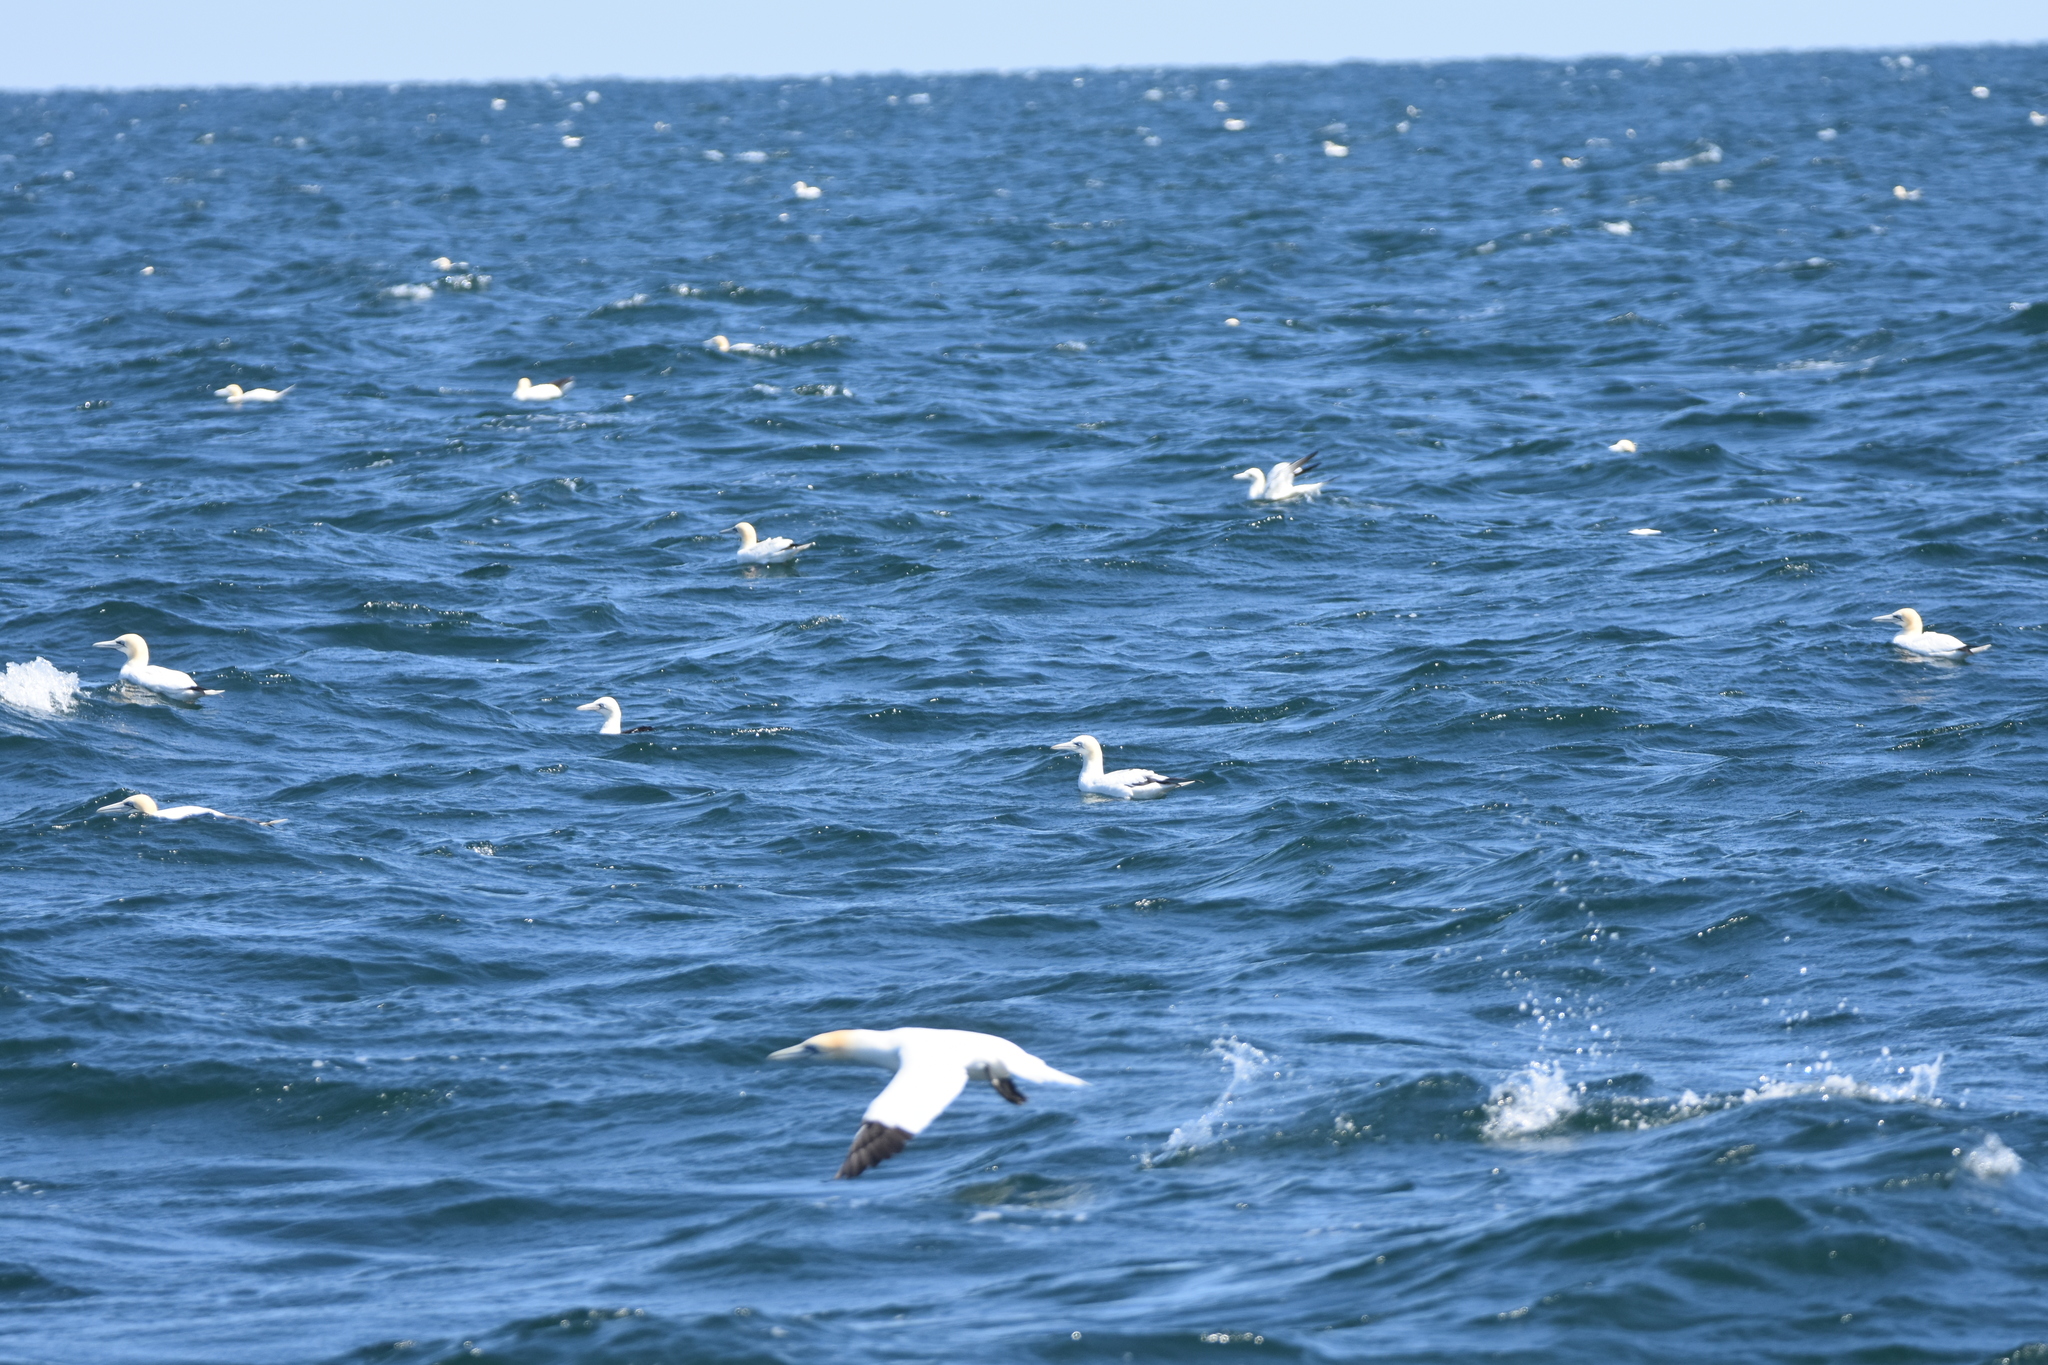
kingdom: Animalia
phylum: Chordata
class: Aves
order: Suliformes
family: Sulidae
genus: Morus
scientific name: Morus bassanus
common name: Northern gannet
